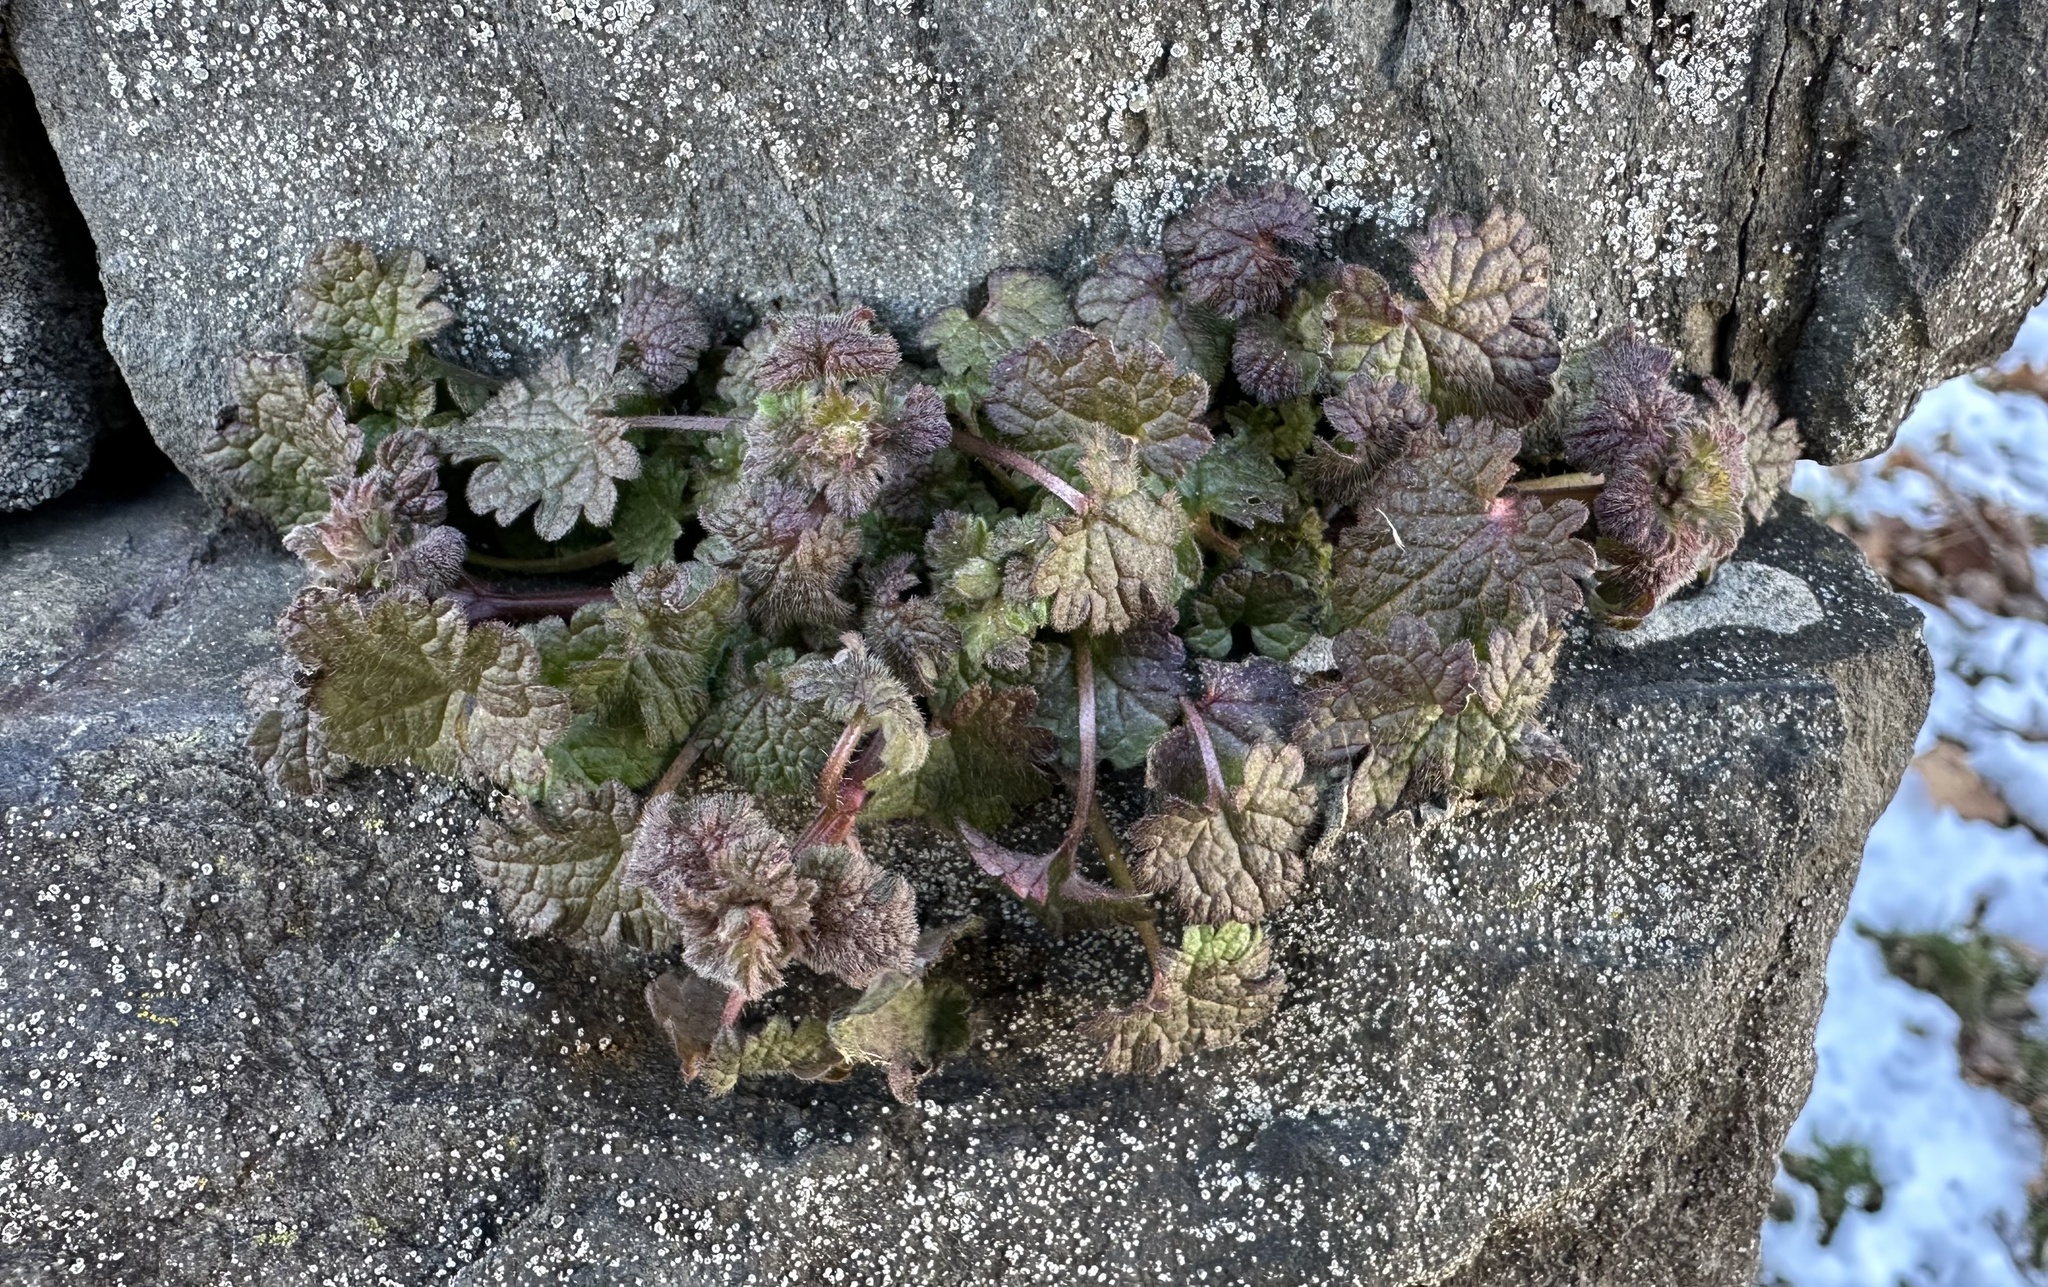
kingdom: Plantae
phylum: Tracheophyta
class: Magnoliopsida
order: Lamiales
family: Lamiaceae
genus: Lamium
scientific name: Lamium amplexicaule
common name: Henbit dead-nettle
